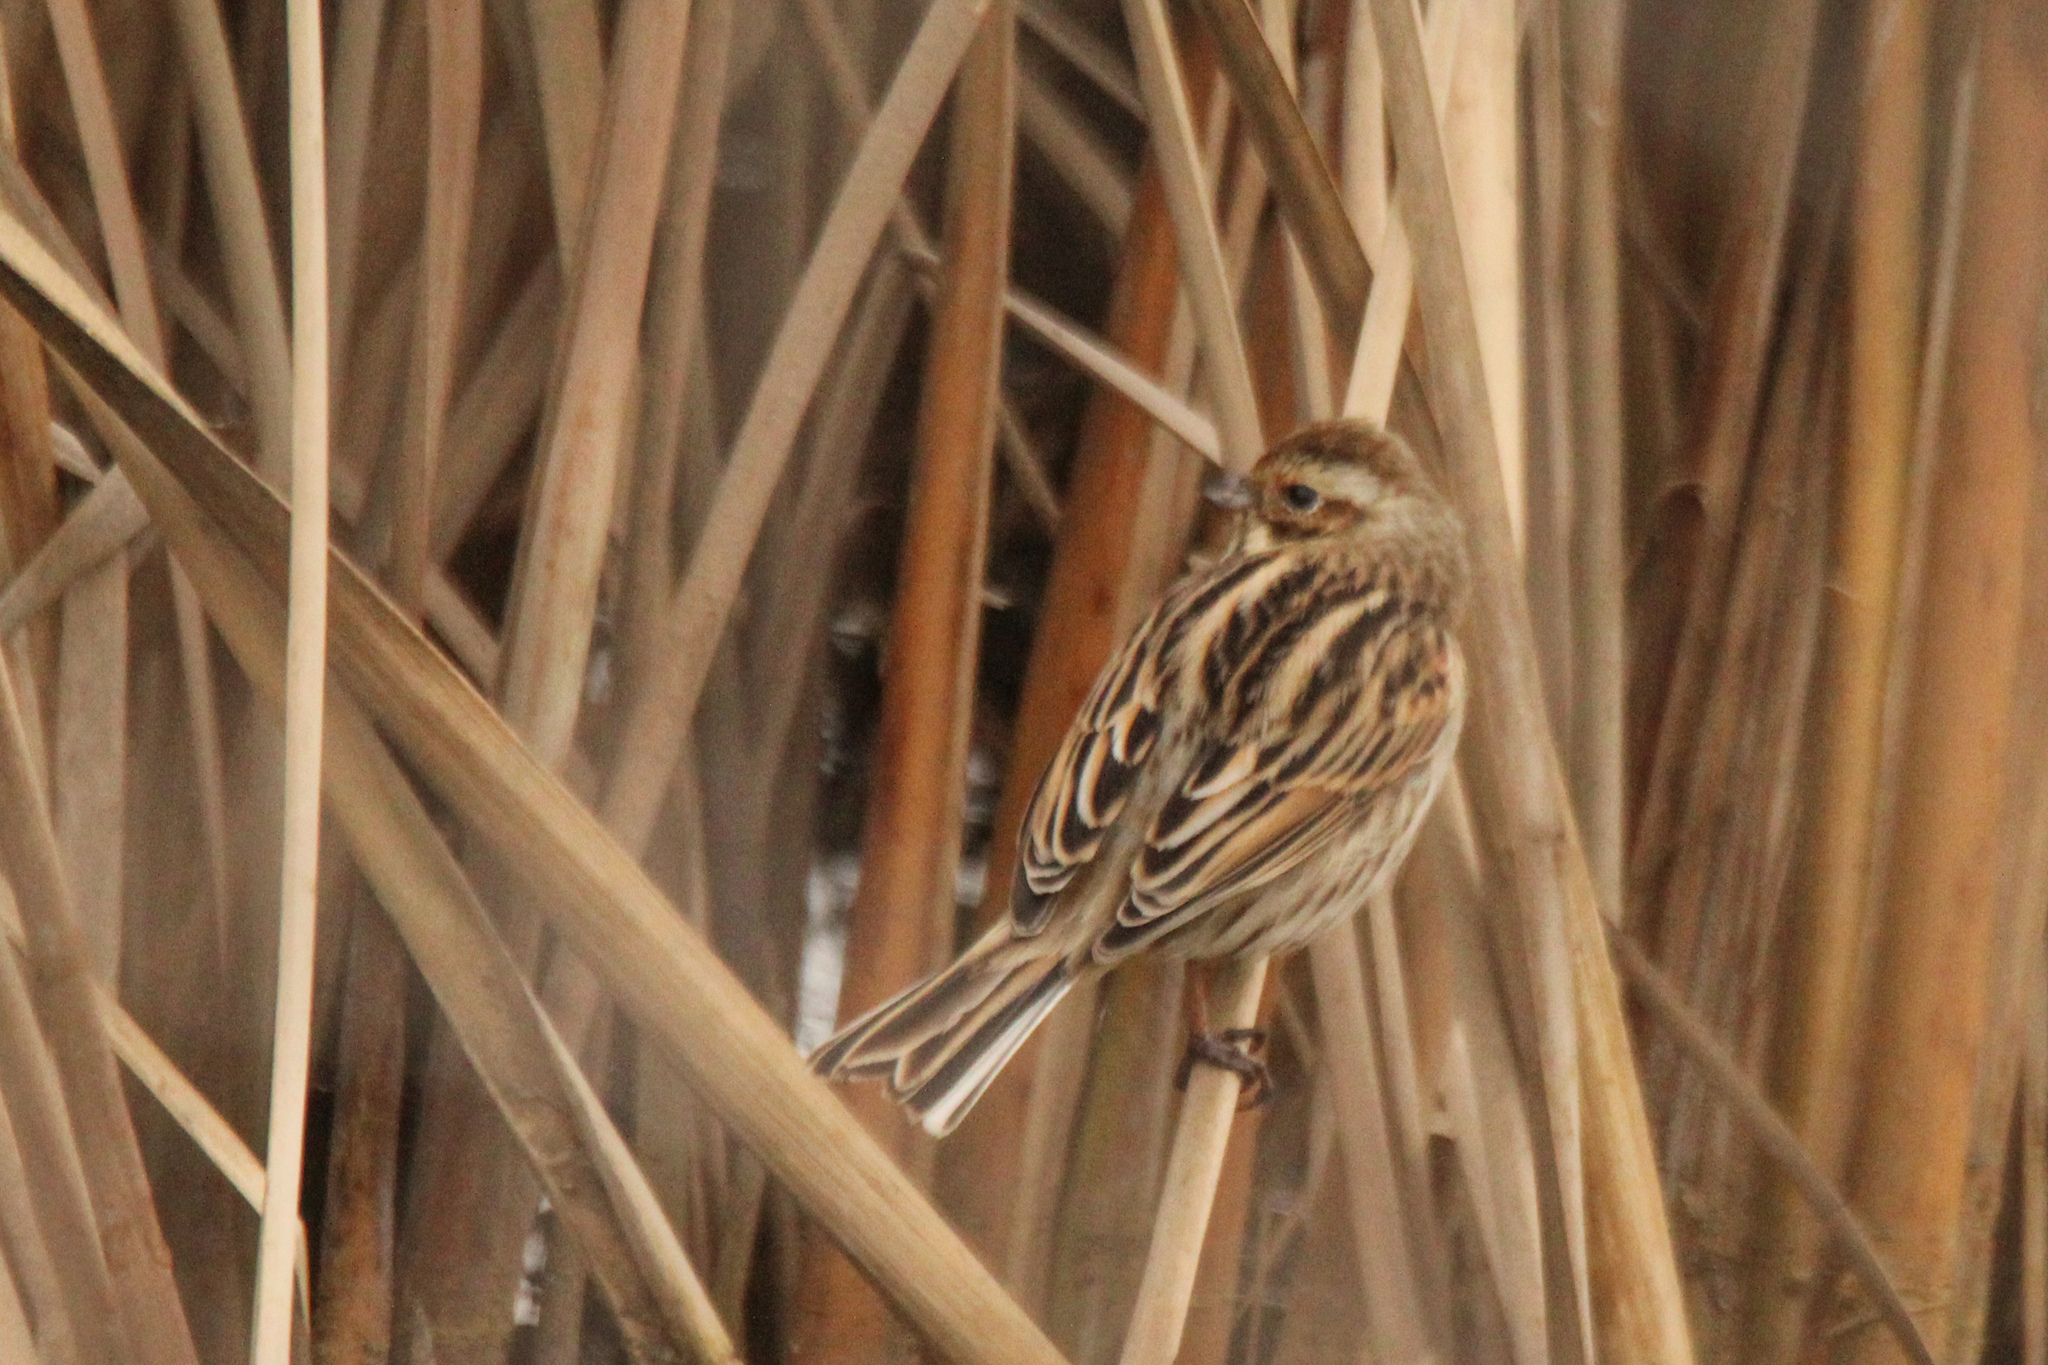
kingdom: Animalia
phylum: Chordata
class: Aves
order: Passeriformes
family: Emberizidae
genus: Emberiza
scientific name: Emberiza schoeniclus
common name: Reed bunting
